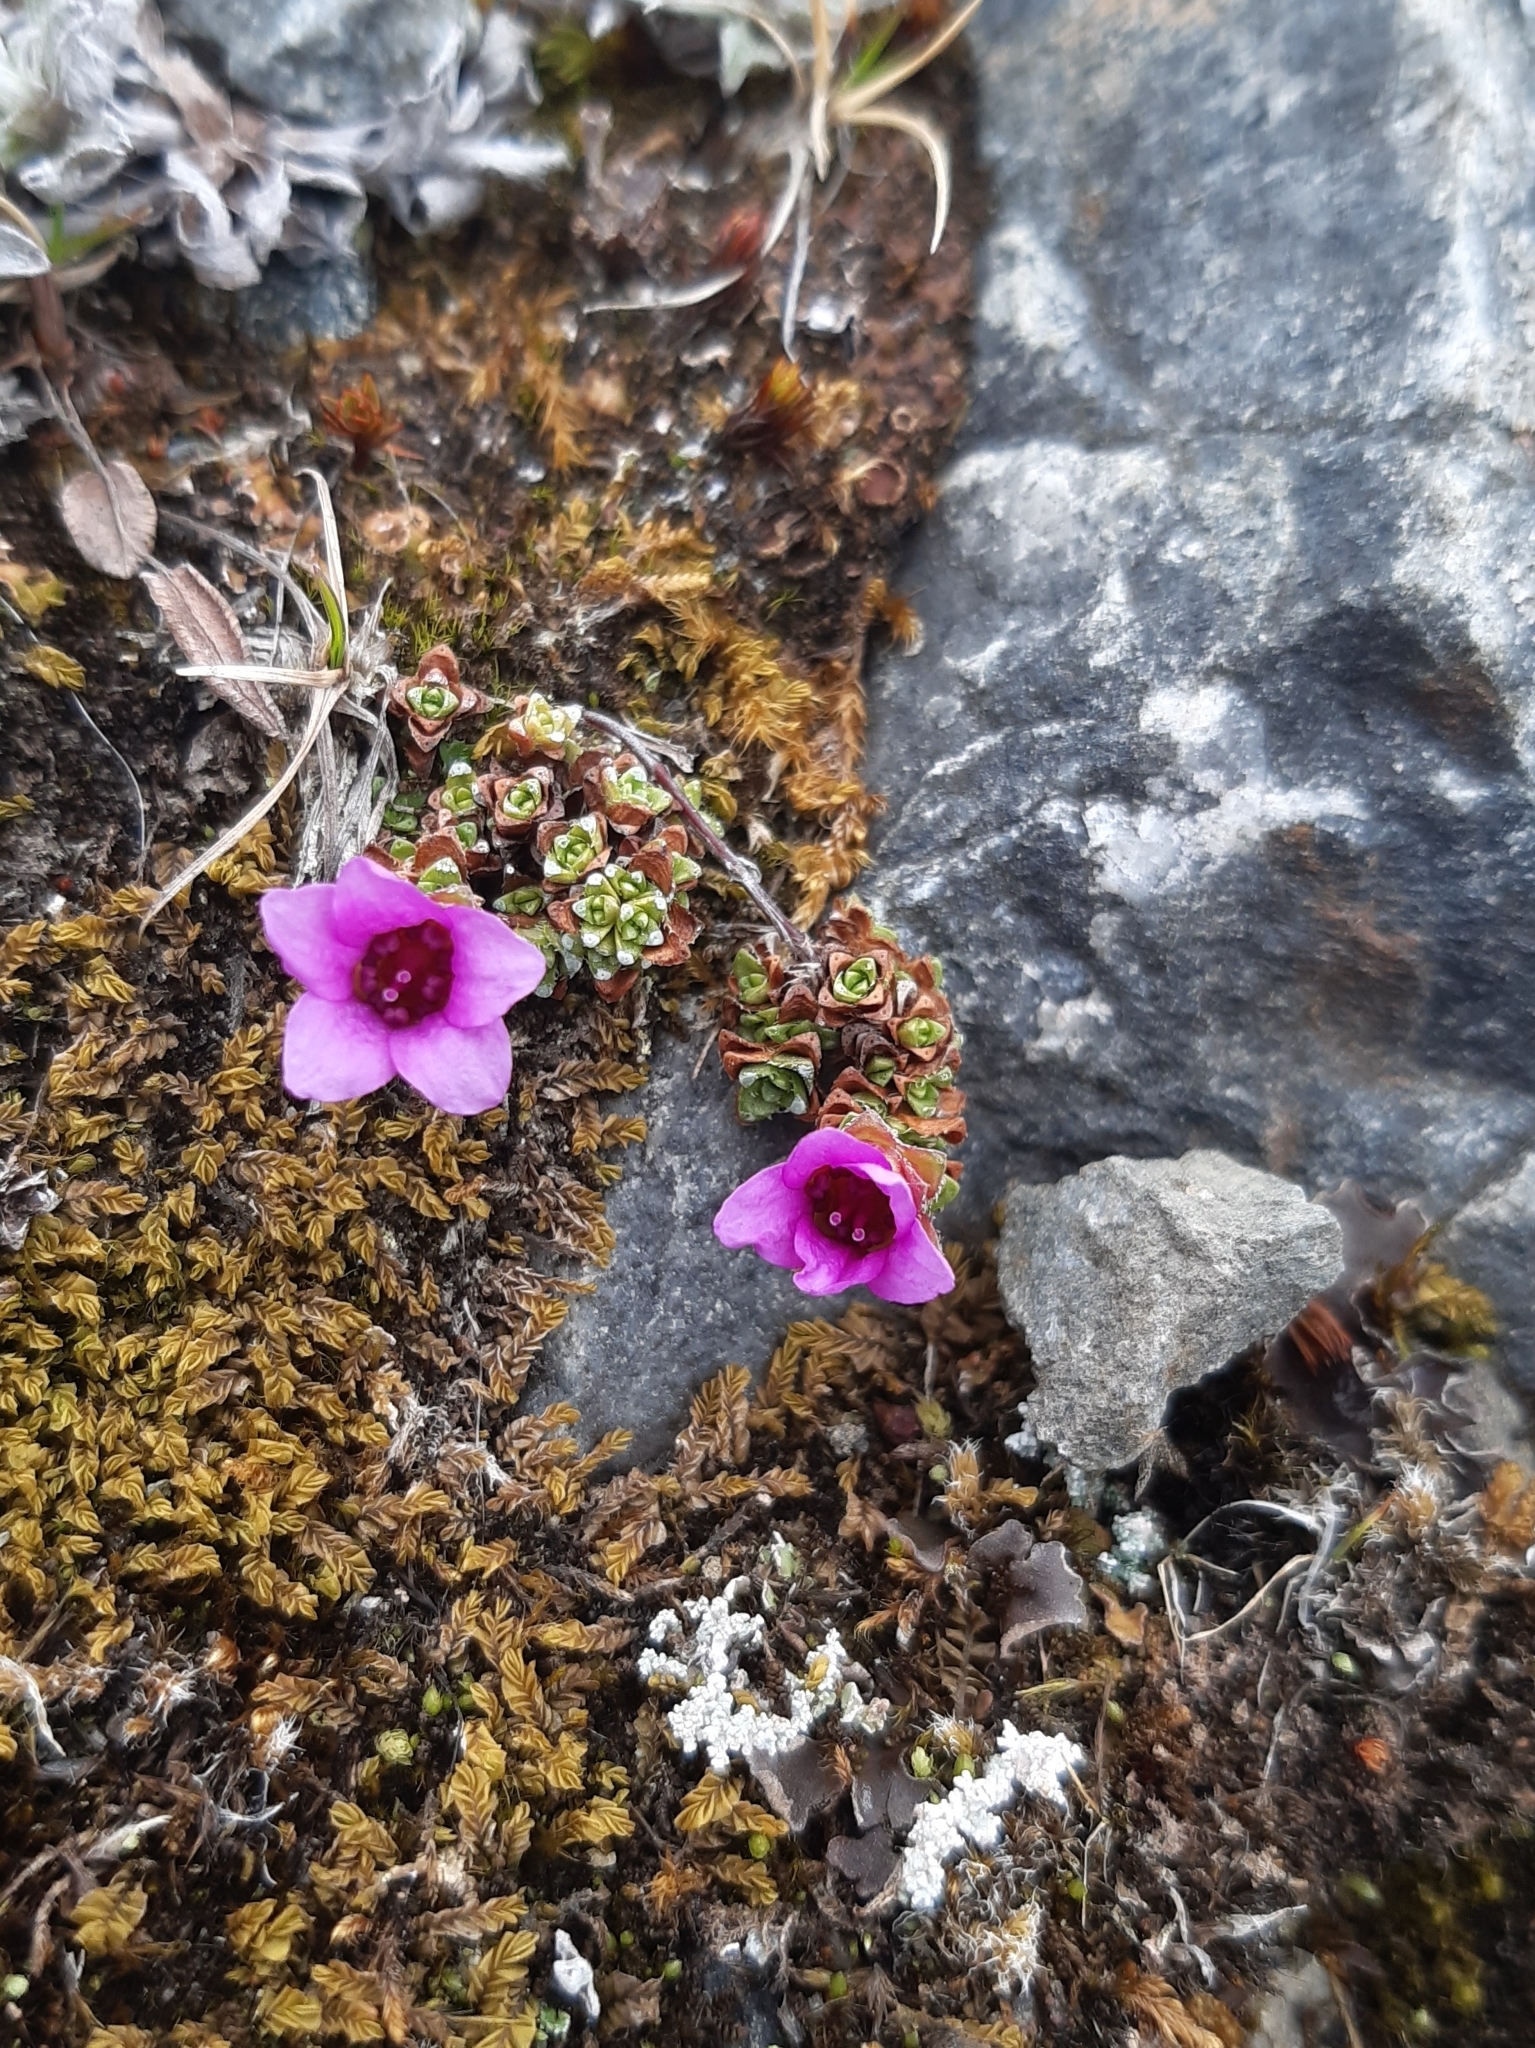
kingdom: Plantae
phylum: Tracheophyta
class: Magnoliopsida
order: Saxifragales
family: Saxifragaceae
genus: Saxifraga
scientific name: Saxifraga oppositifolia
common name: Purple saxifrage
